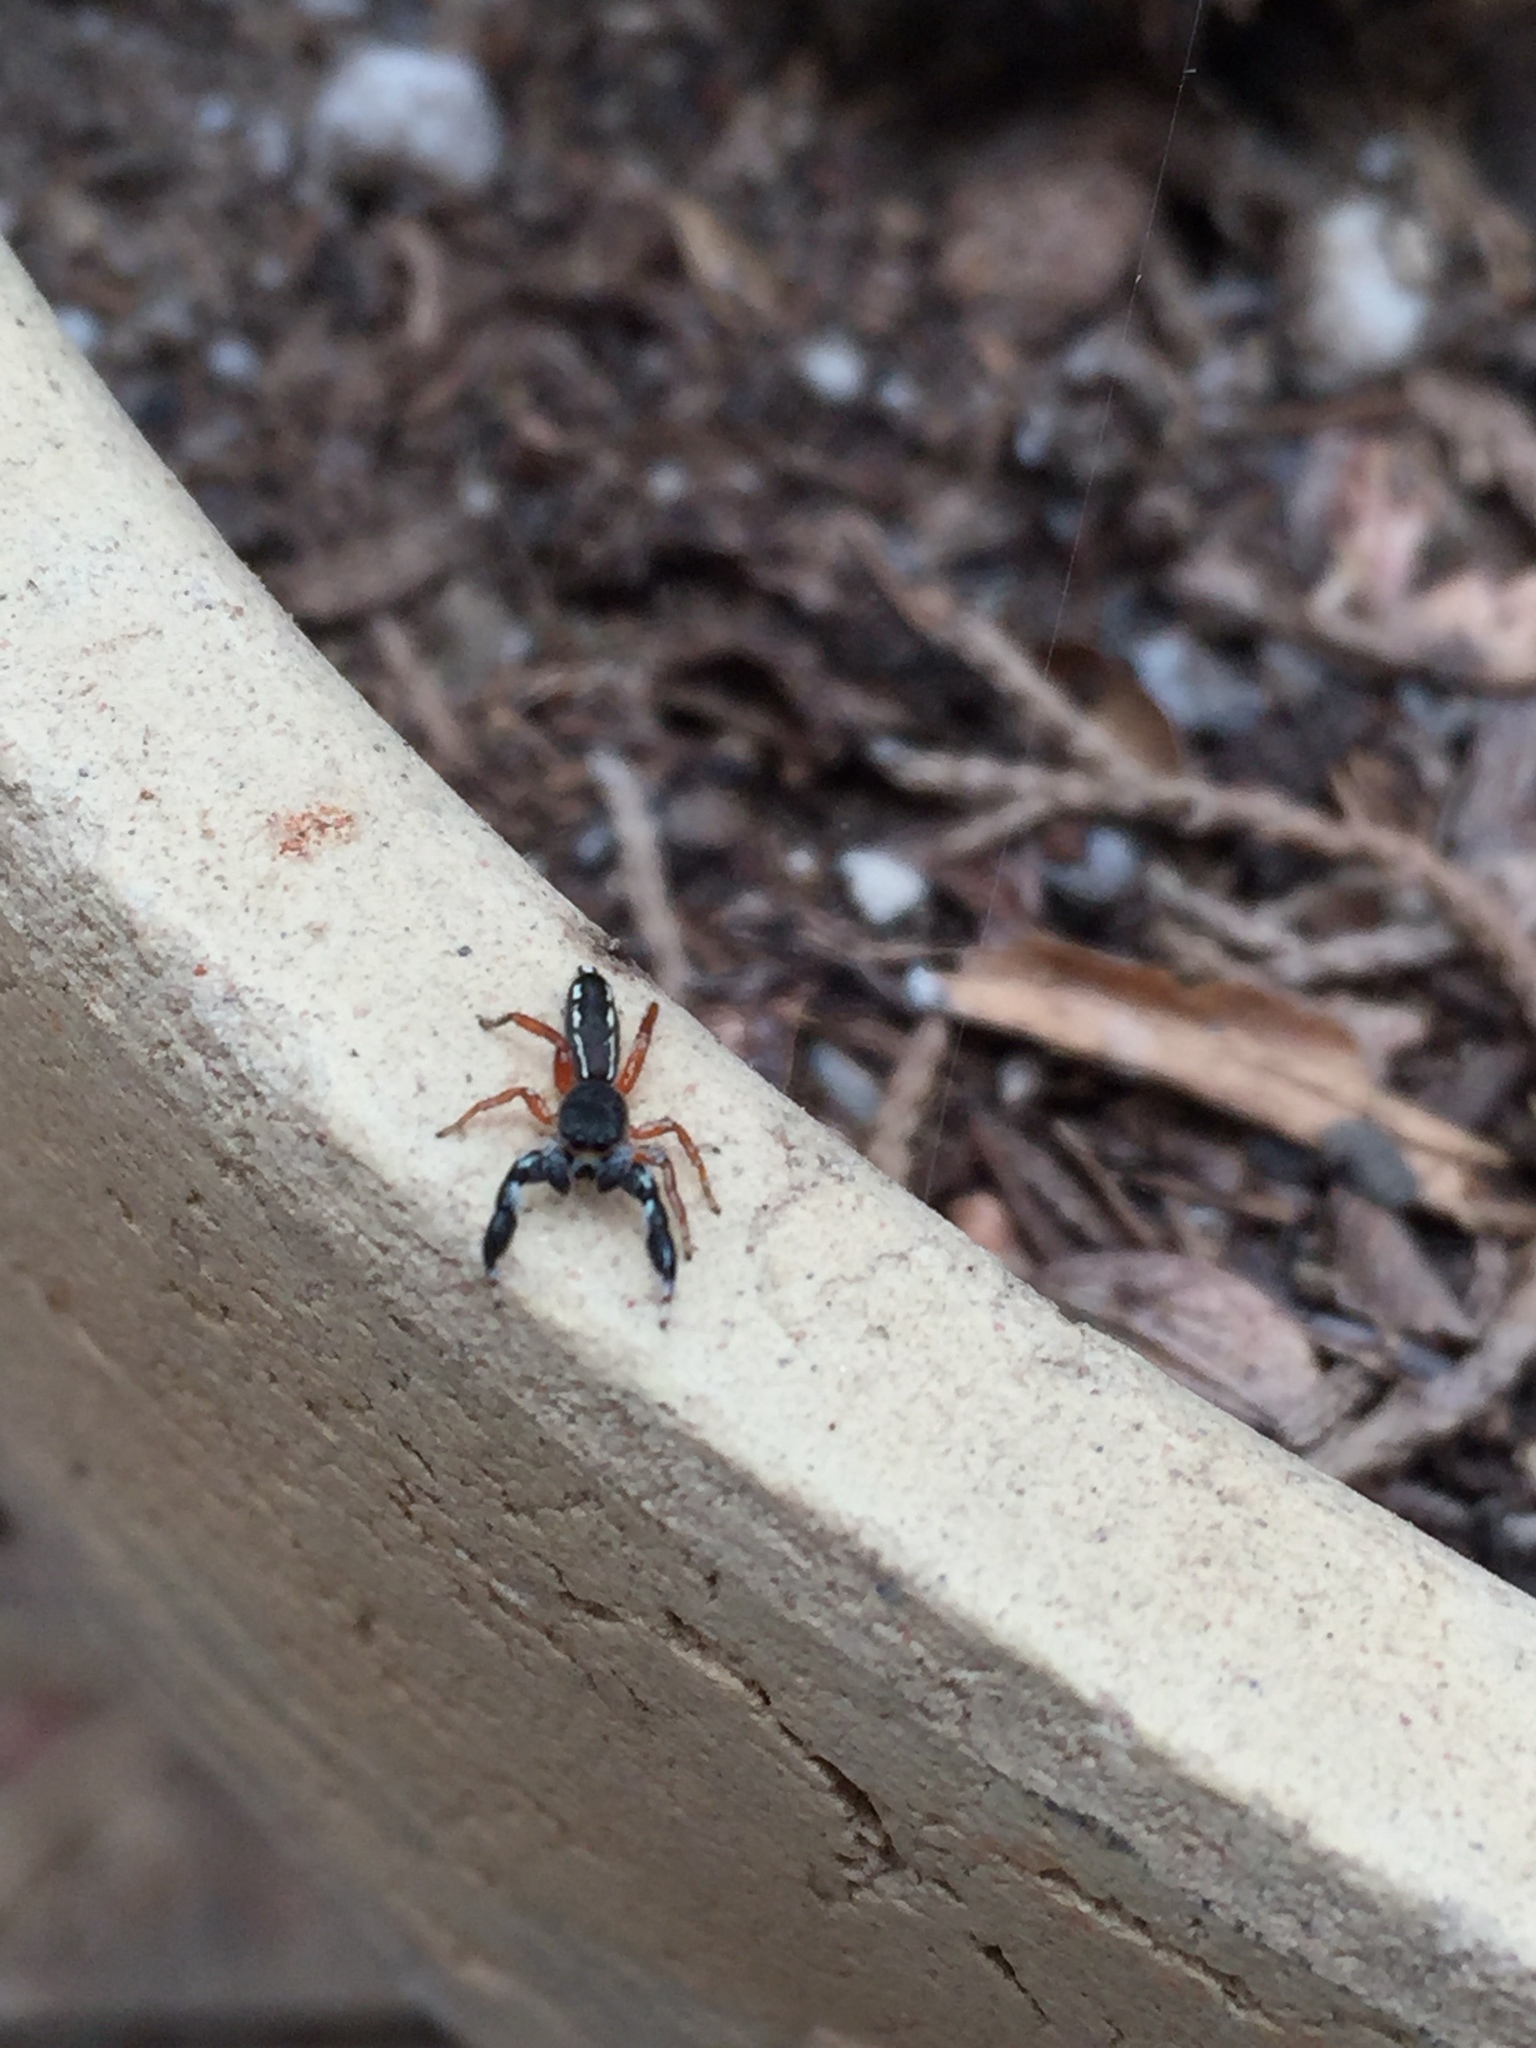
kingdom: Animalia
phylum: Arthropoda
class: Arachnida
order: Araneae
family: Salticidae
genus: Metacyrba
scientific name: Metacyrba floridana
